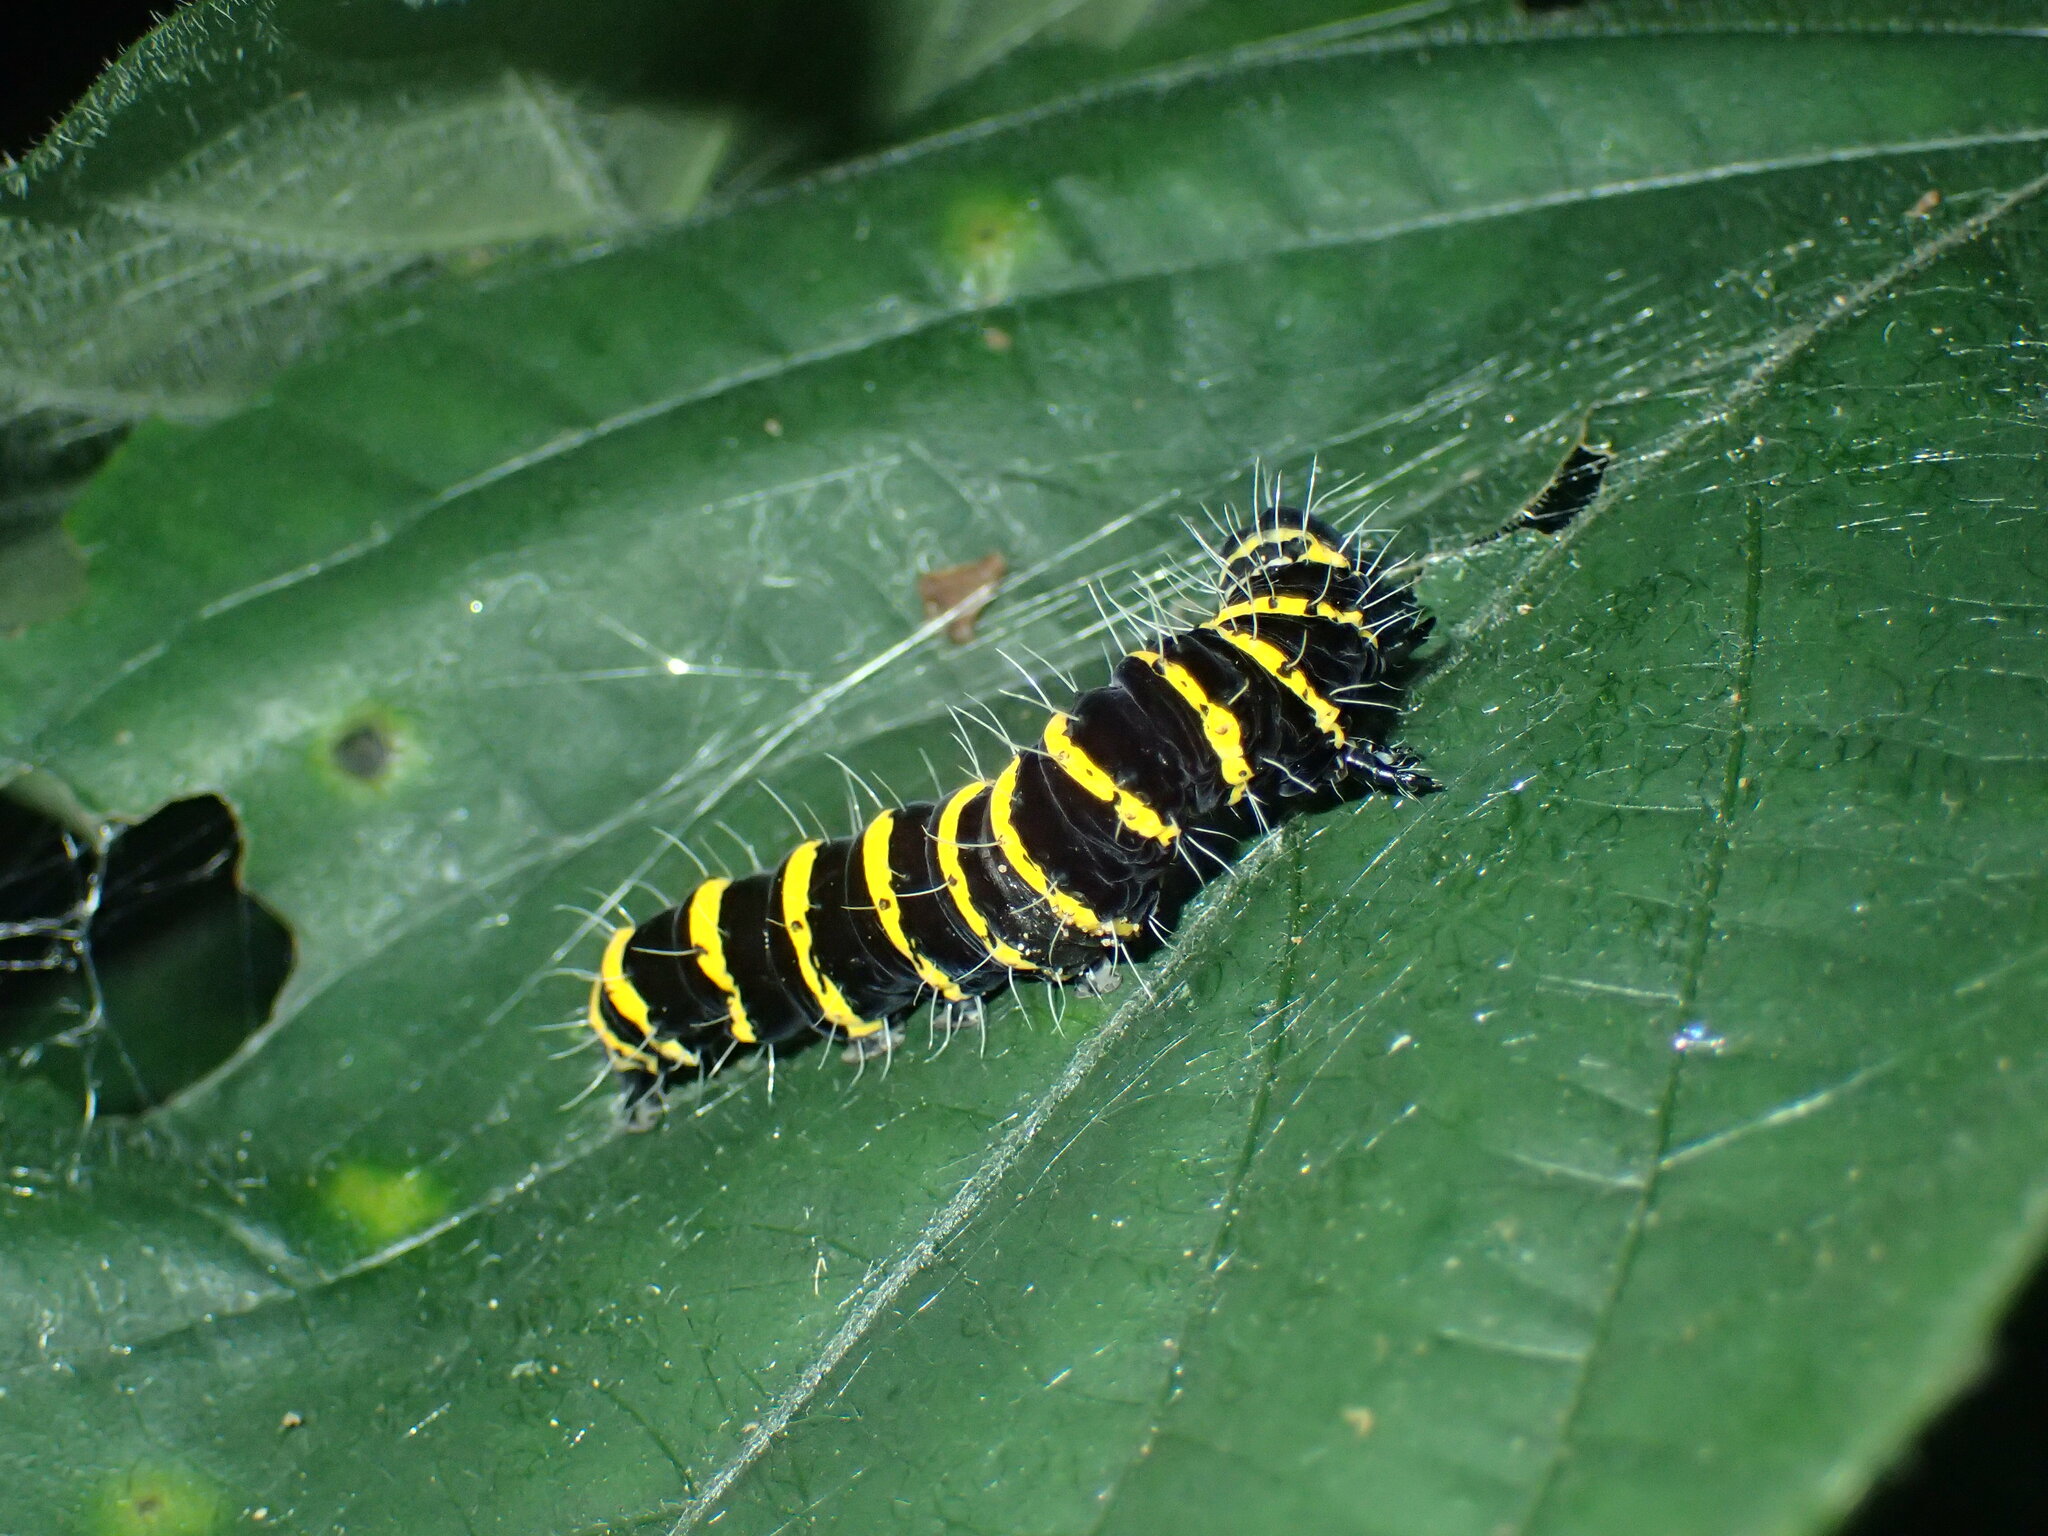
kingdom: Animalia
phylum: Arthropoda
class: Insecta
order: Lepidoptera
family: Erebidae
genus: Egybolis
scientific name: Egybolis vaillantina
